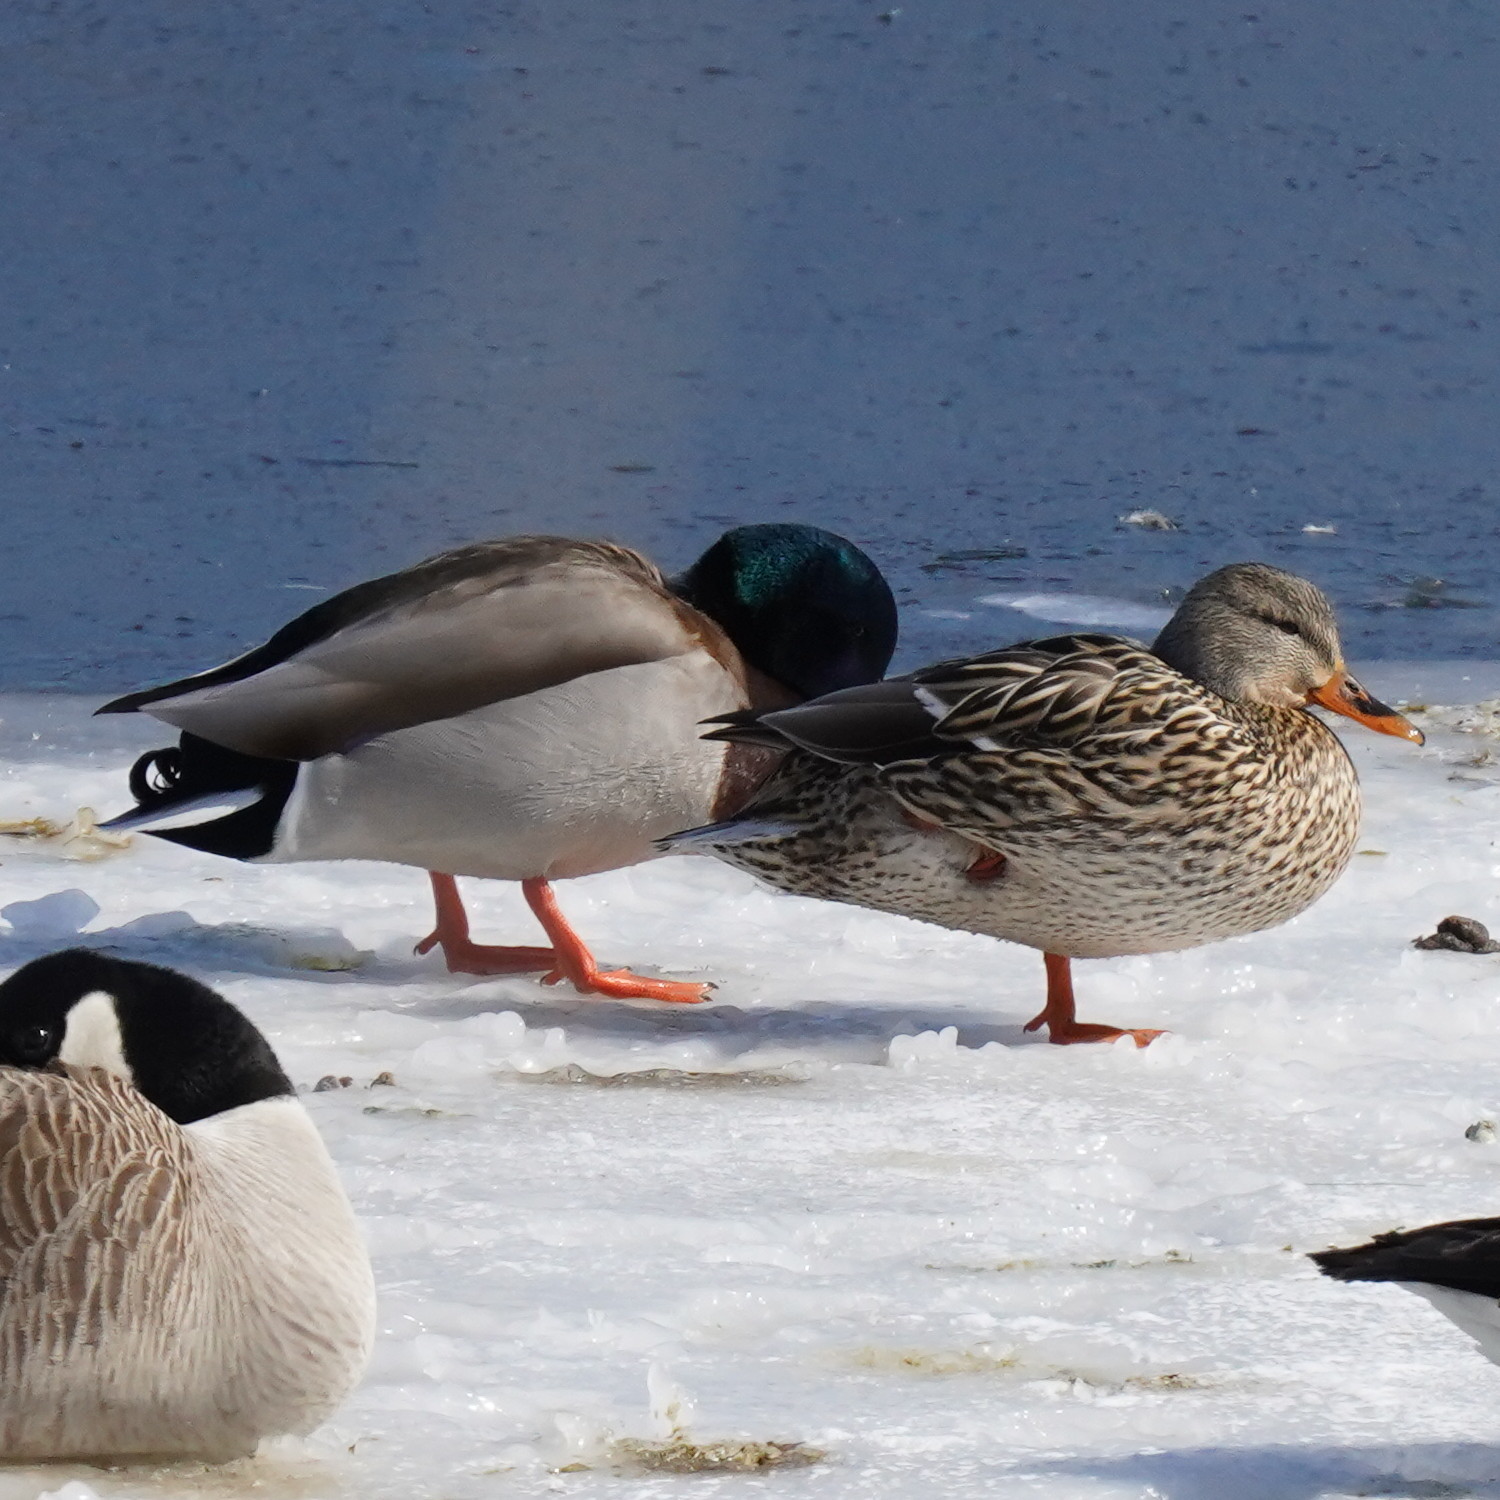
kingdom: Animalia
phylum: Chordata
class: Aves
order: Anseriformes
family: Anatidae
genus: Anas
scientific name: Anas platyrhynchos
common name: Mallard
